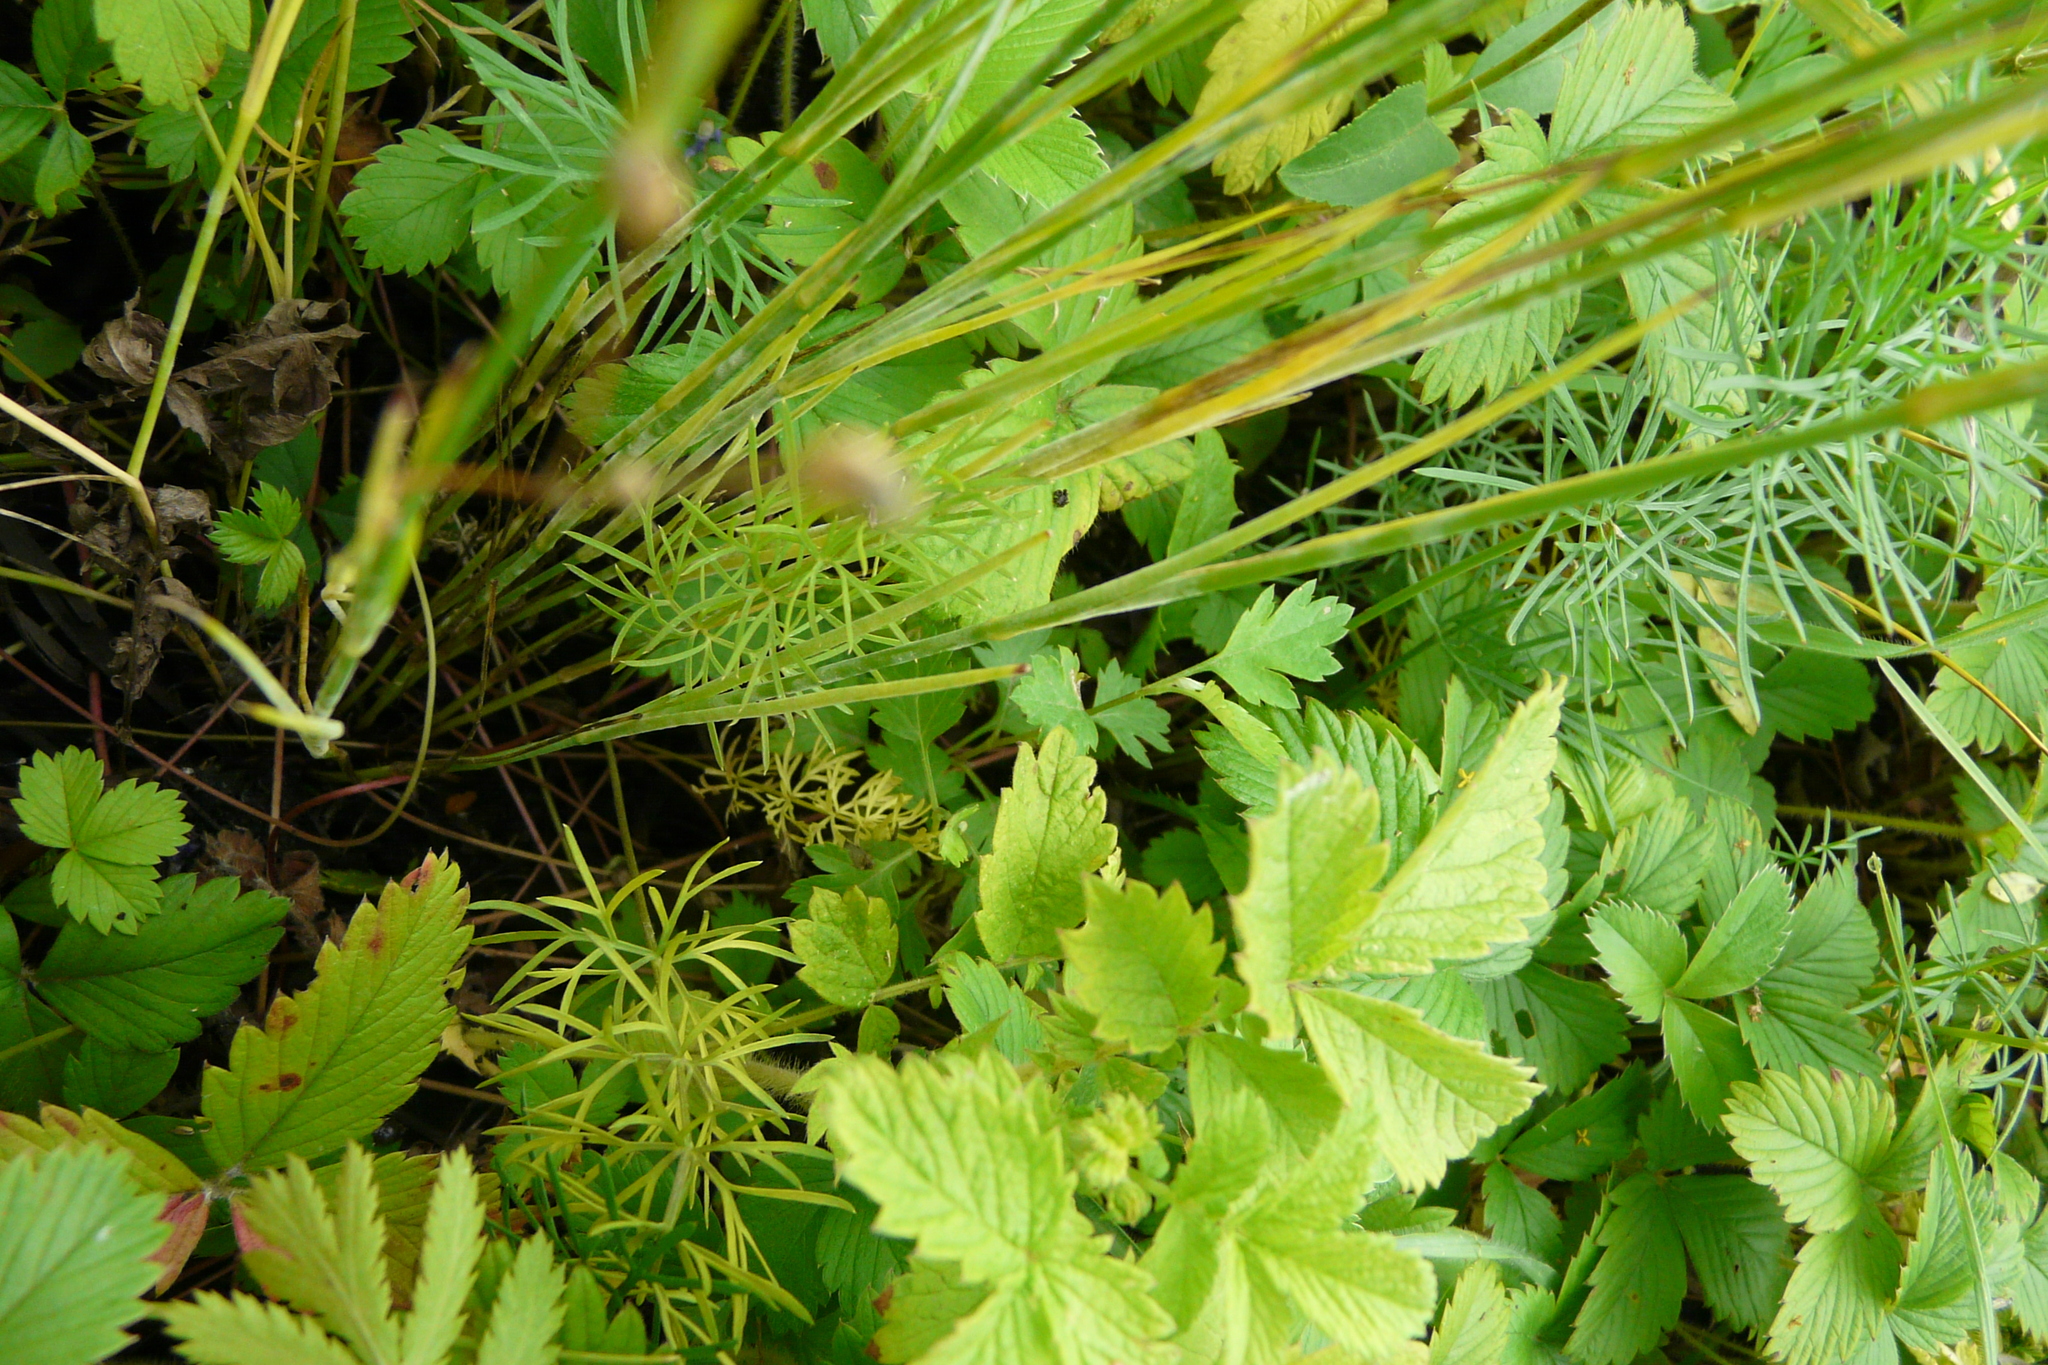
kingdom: Plantae
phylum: Tracheophyta
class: Magnoliopsida
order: Caryophyllales
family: Caryophyllaceae
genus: Eremogone
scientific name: Eremogone saxatilis
